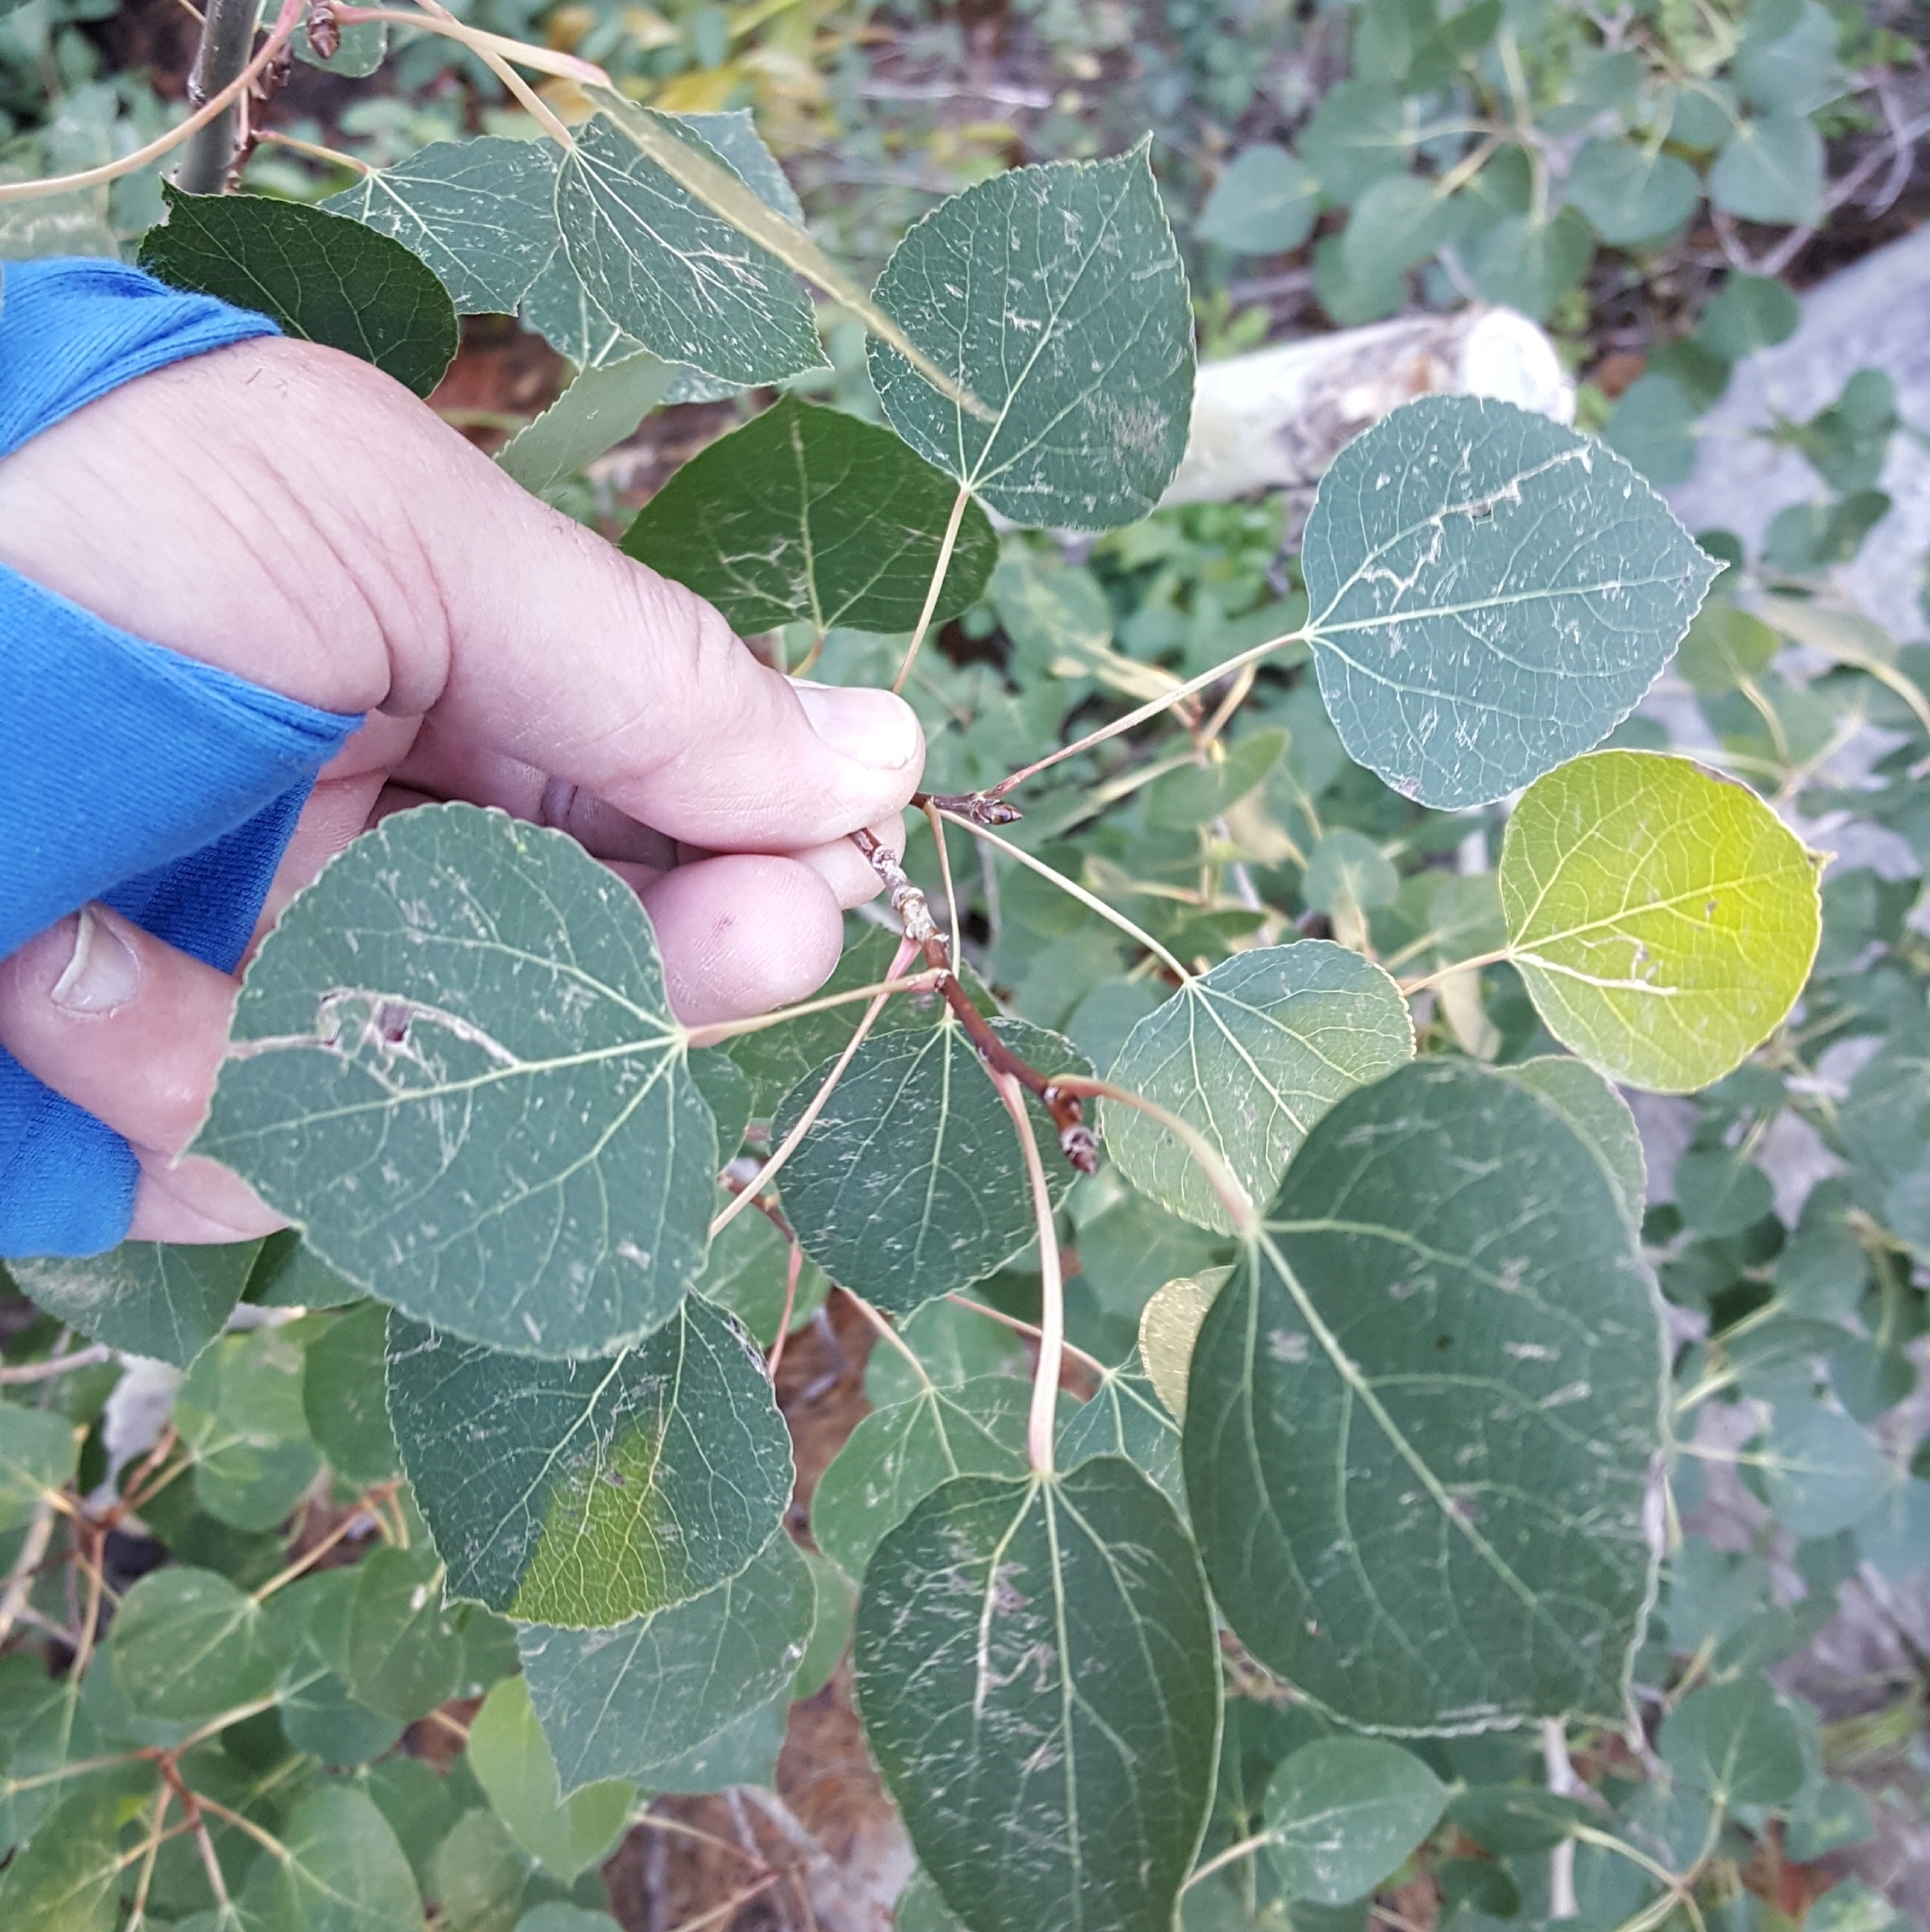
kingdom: Plantae
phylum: Tracheophyta
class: Magnoliopsida
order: Malpighiales
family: Salicaceae
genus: Populus
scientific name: Populus tremuloides
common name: Quaking aspen
